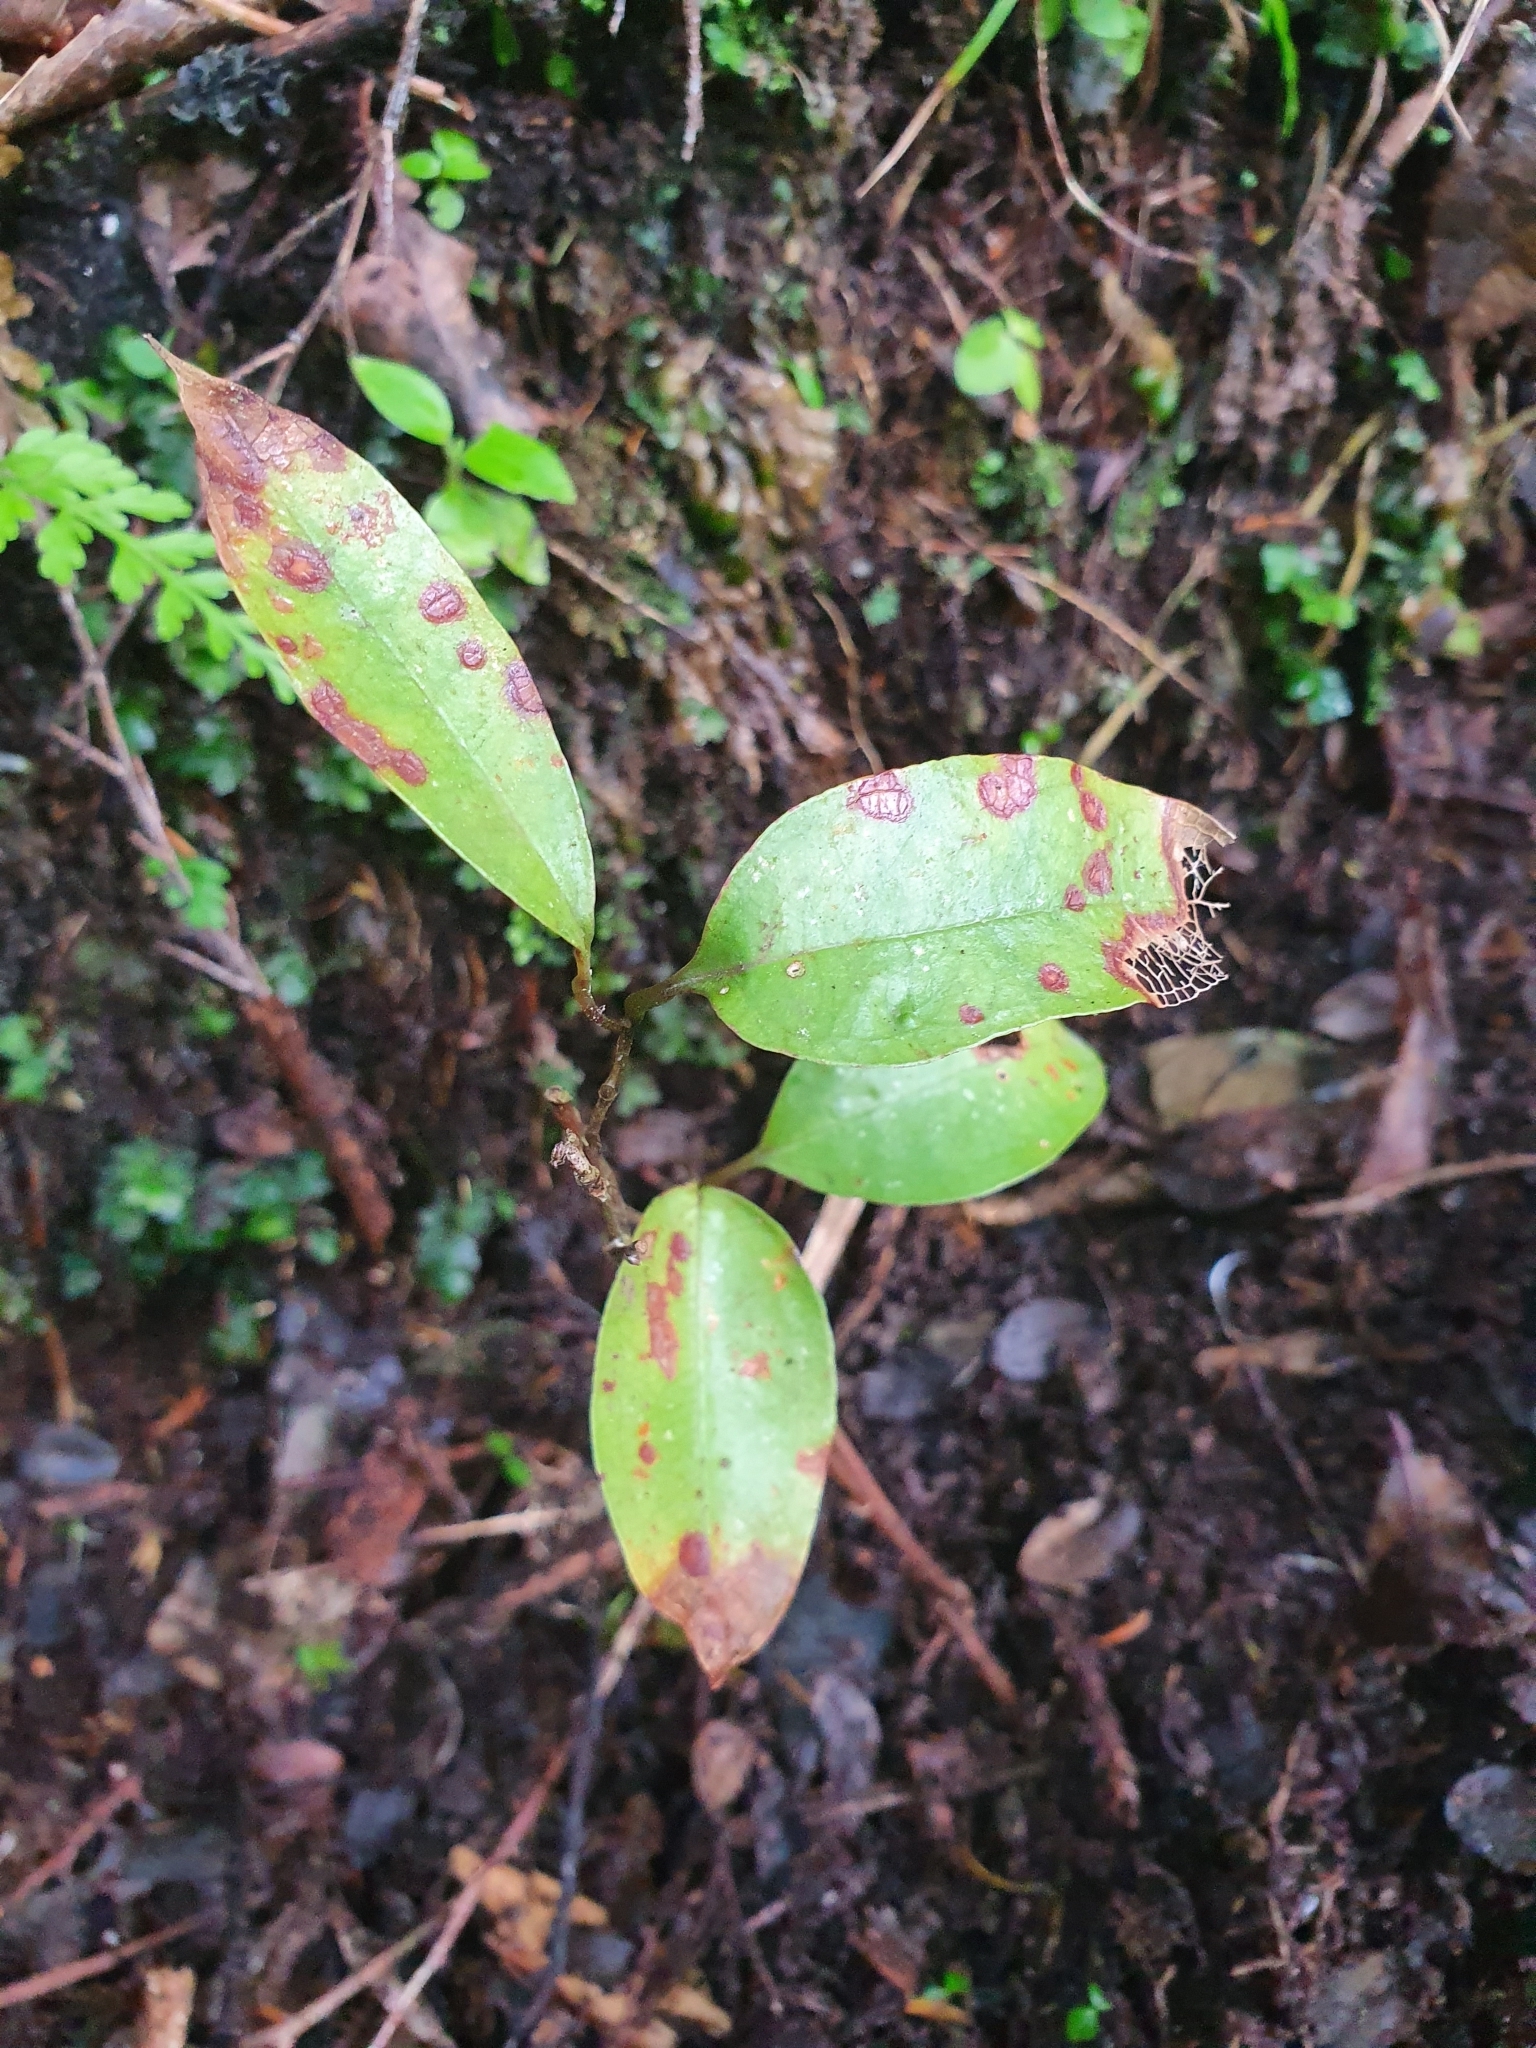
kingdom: Plantae
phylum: Tracheophyta
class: Liliopsida
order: Liliales
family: Ripogonaceae
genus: Ripogonum
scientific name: Ripogonum scandens
